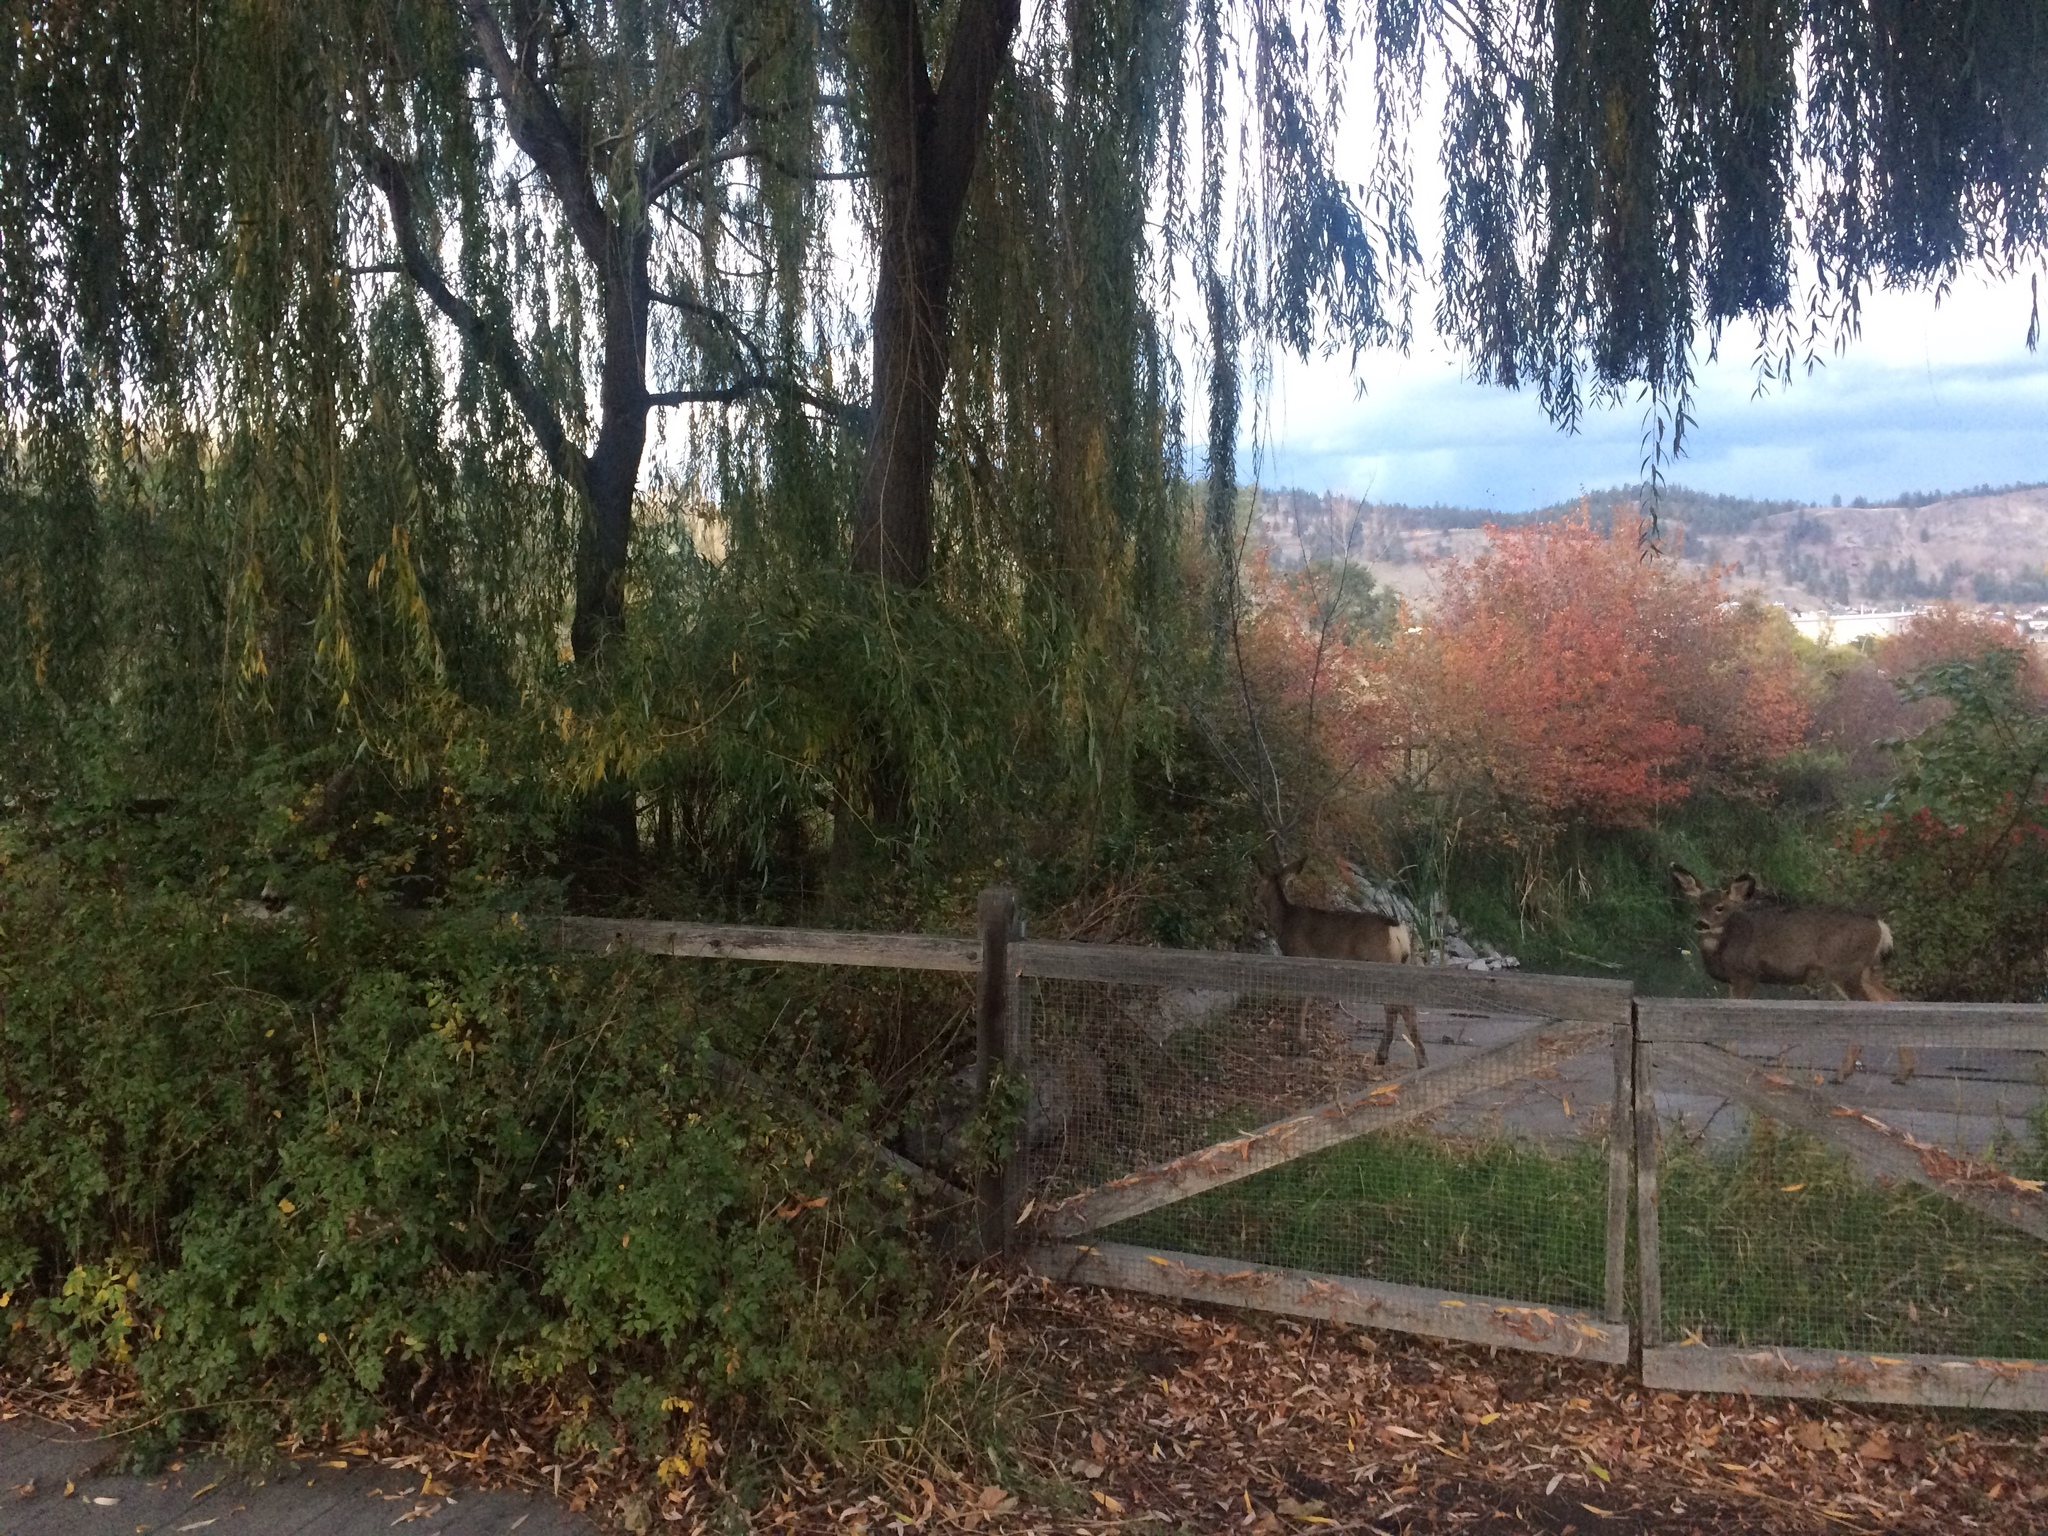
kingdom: Animalia
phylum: Chordata
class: Mammalia
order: Artiodactyla
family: Cervidae
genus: Odocoileus
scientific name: Odocoileus hemionus
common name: Mule deer
